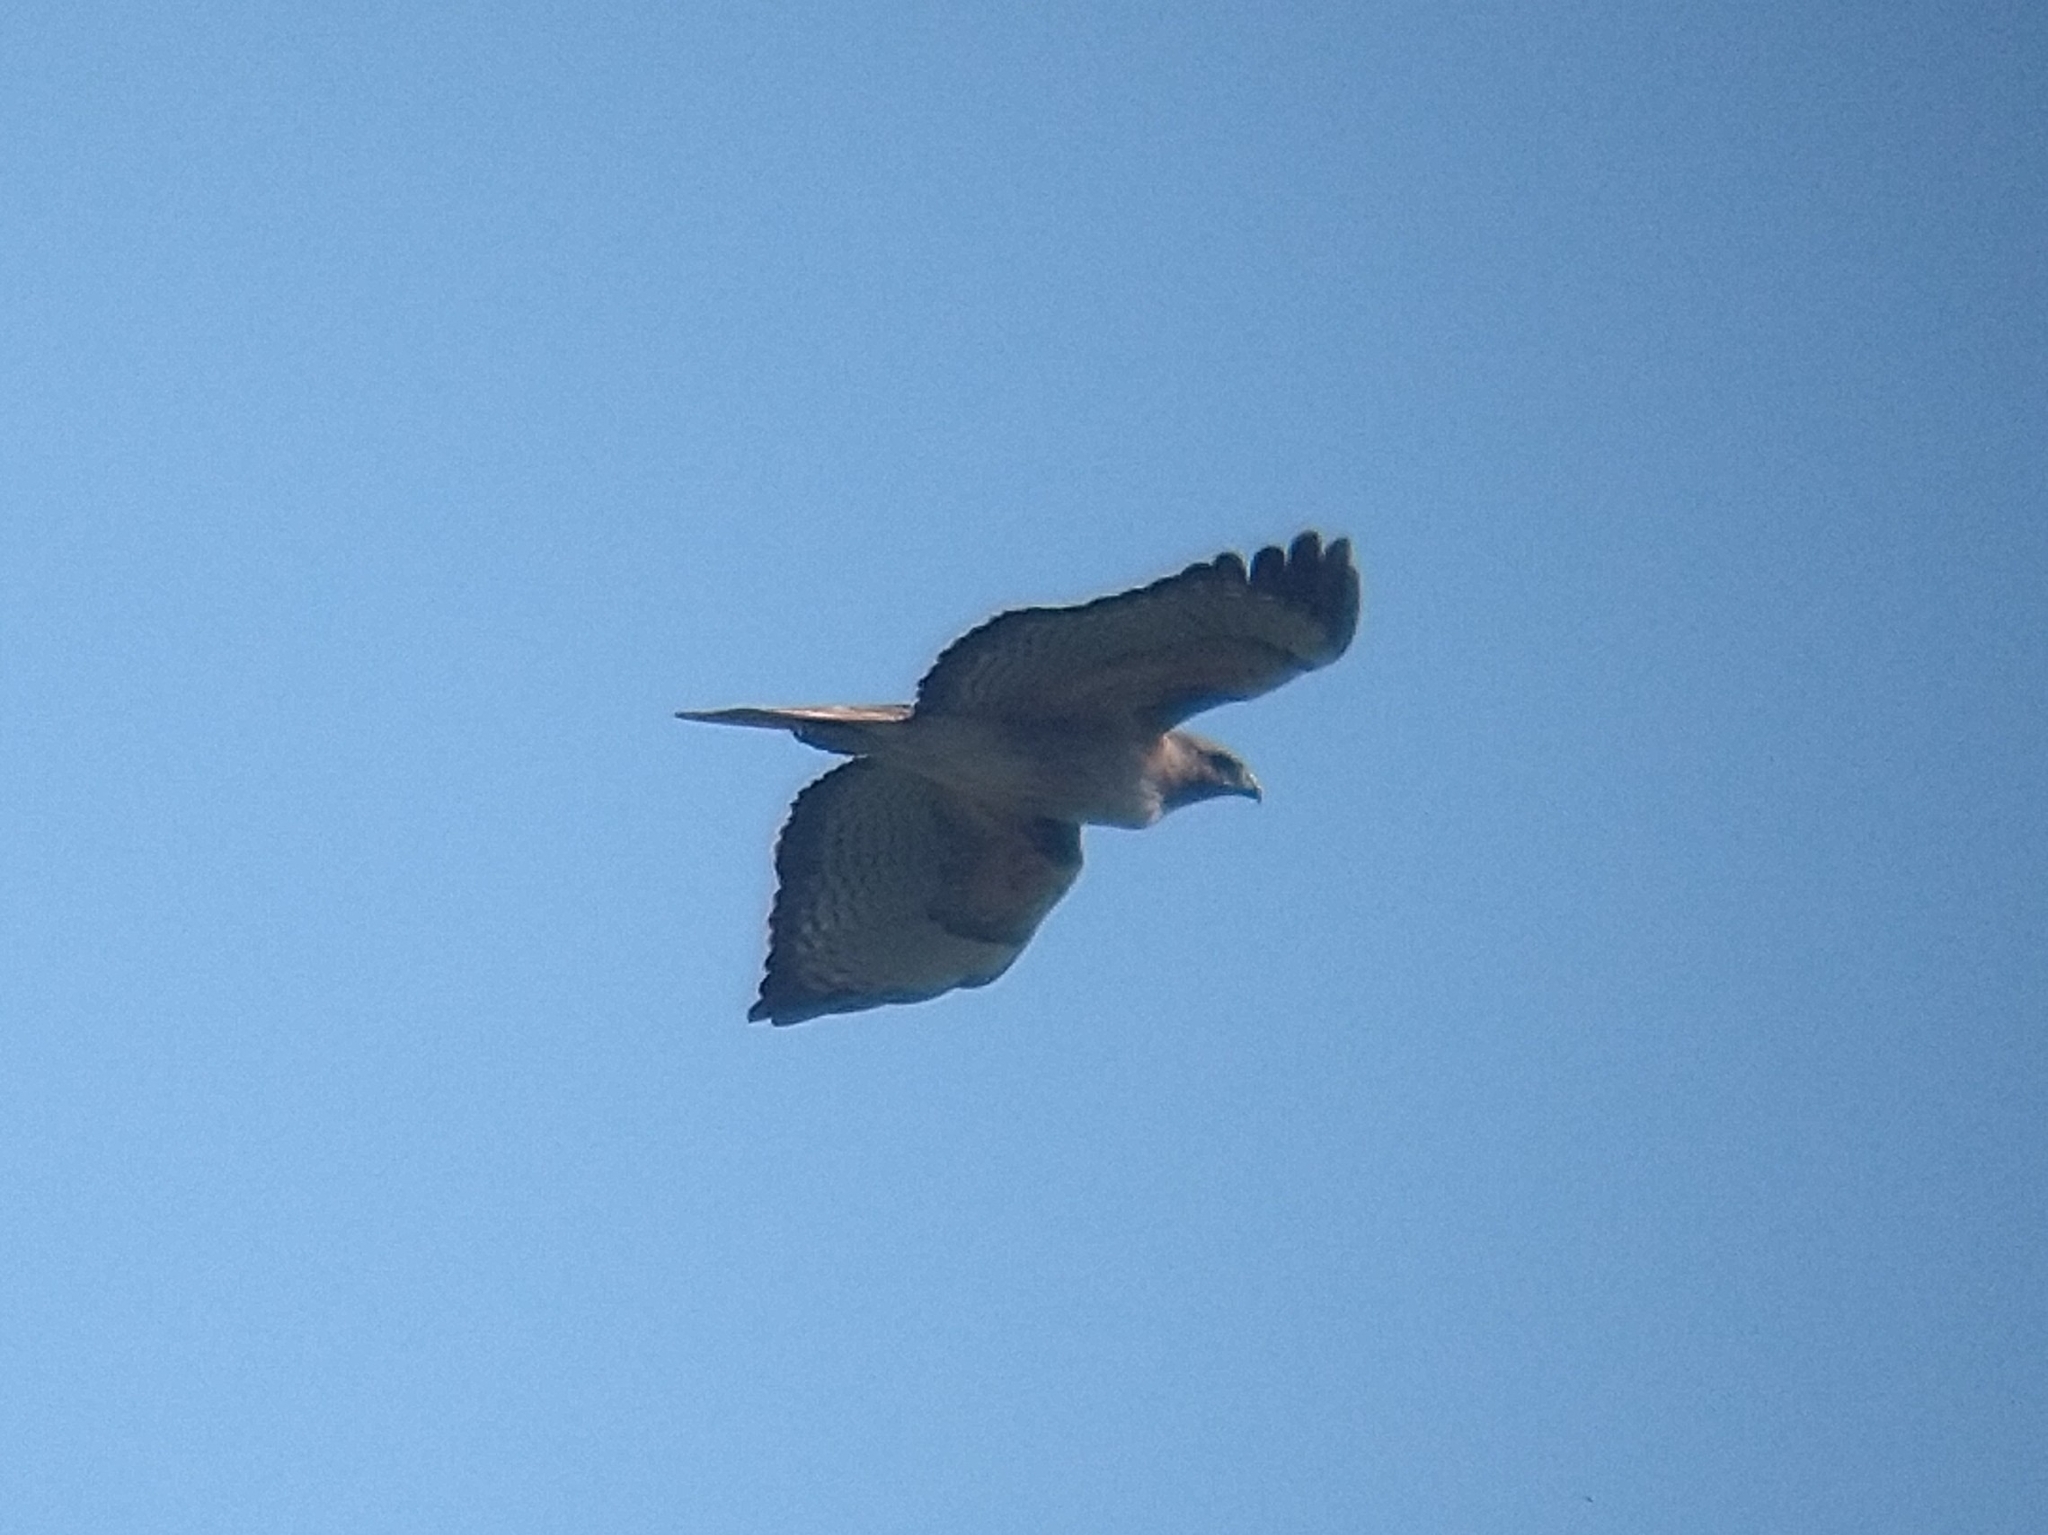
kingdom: Animalia
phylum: Chordata
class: Aves
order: Accipitriformes
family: Accipitridae
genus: Buteo
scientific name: Buteo swainsoni
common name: Swainson's hawk
